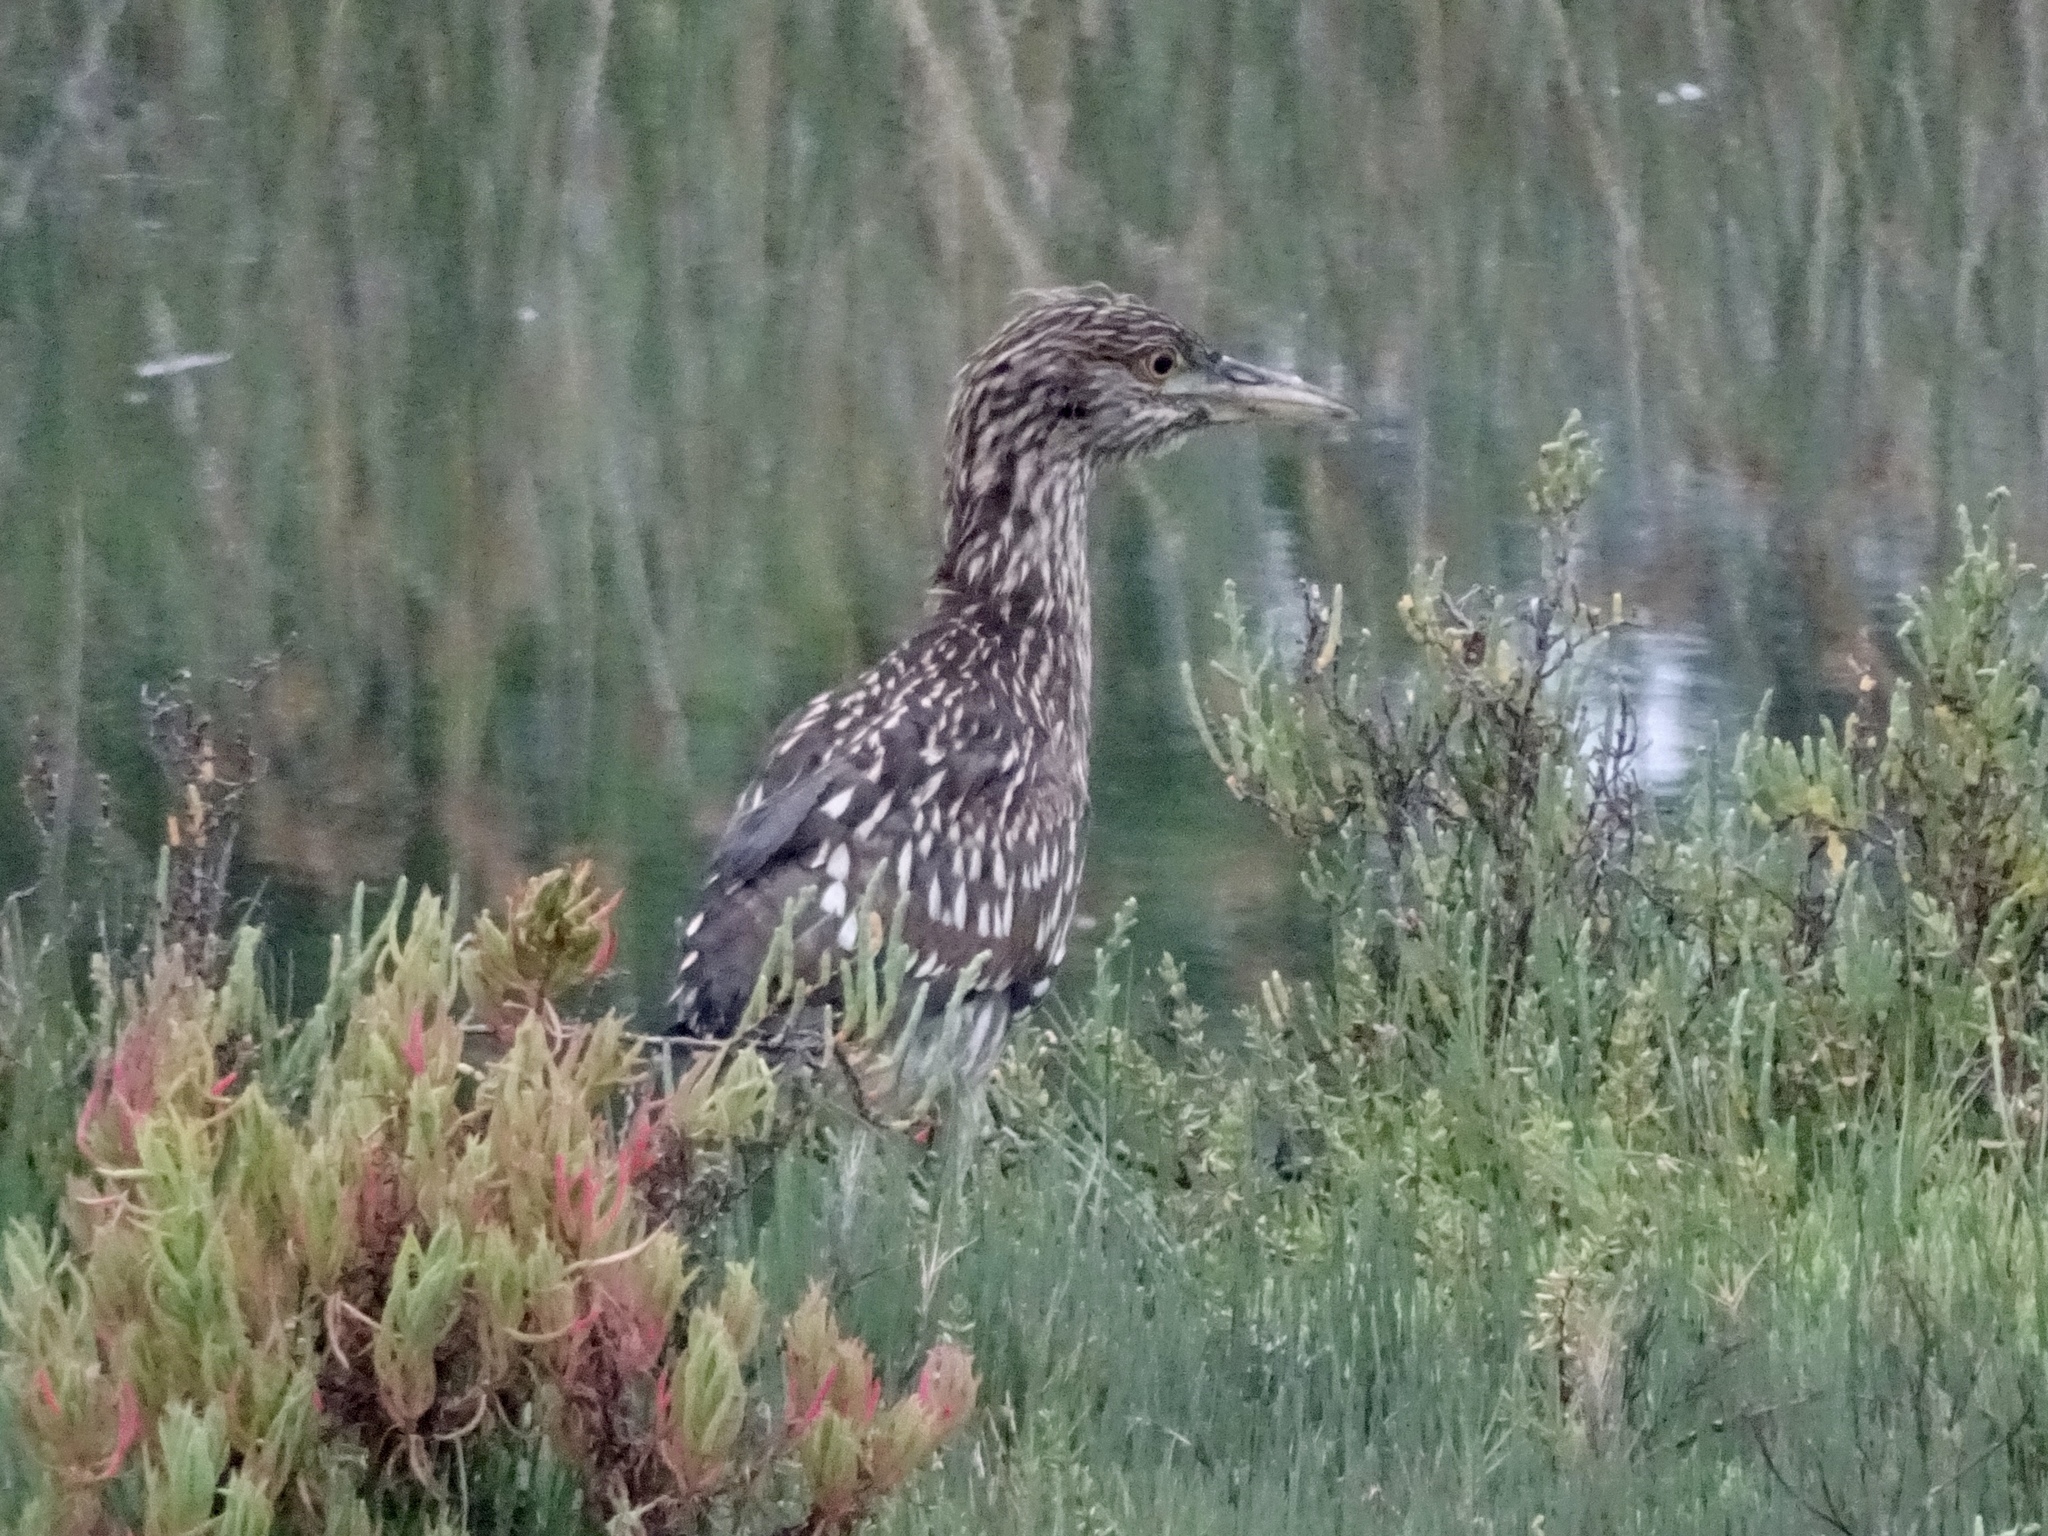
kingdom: Animalia
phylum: Chordata
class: Aves
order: Pelecaniformes
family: Ardeidae
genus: Nycticorax
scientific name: Nycticorax nycticorax
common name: Black-crowned night heron
